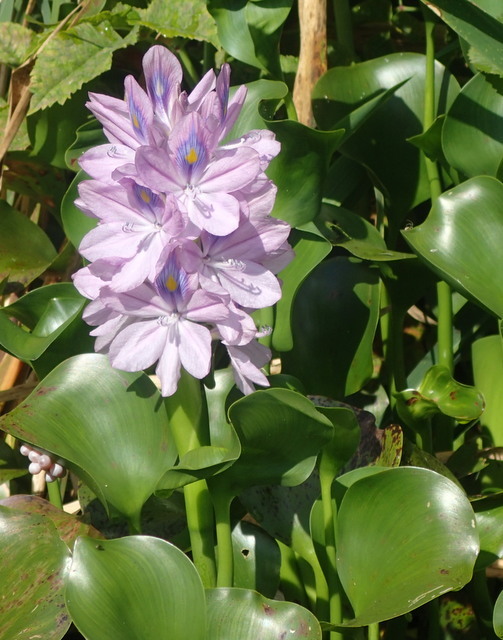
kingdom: Plantae
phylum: Tracheophyta
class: Liliopsida
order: Commelinales
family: Pontederiaceae
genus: Pontederia
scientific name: Pontederia crassipes
